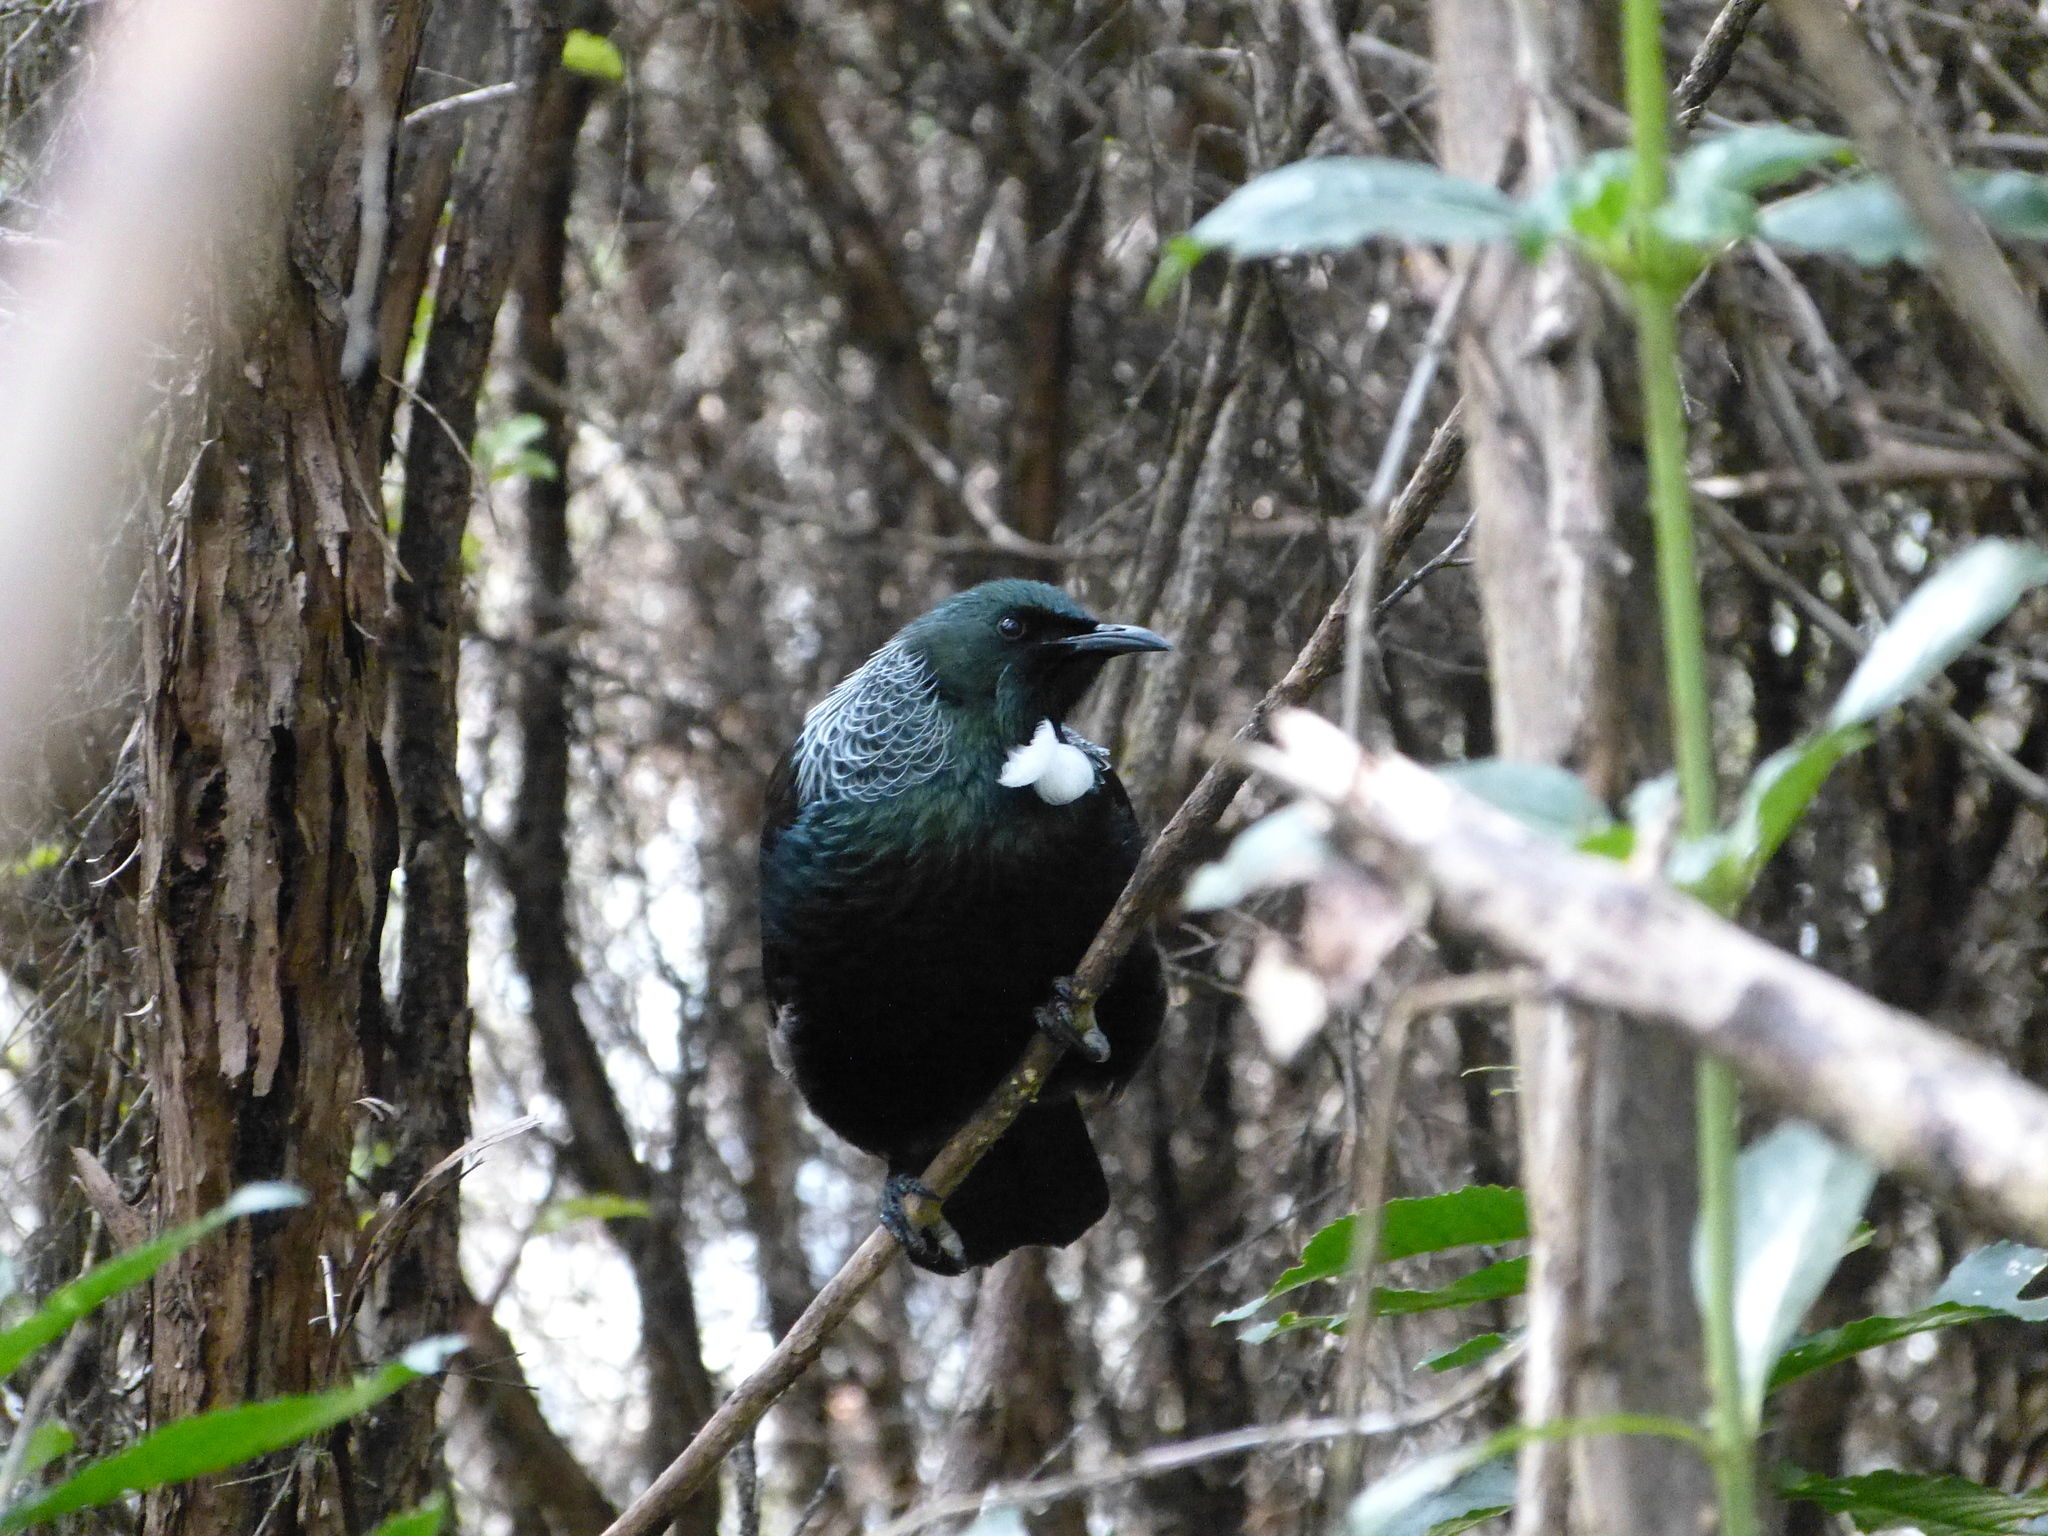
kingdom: Animalia
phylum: Chordata
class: Aves
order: Passeriformes
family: Meliphagidae
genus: Prosthemadera
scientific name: Prosthemadera novaeseelandiae
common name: Tui
